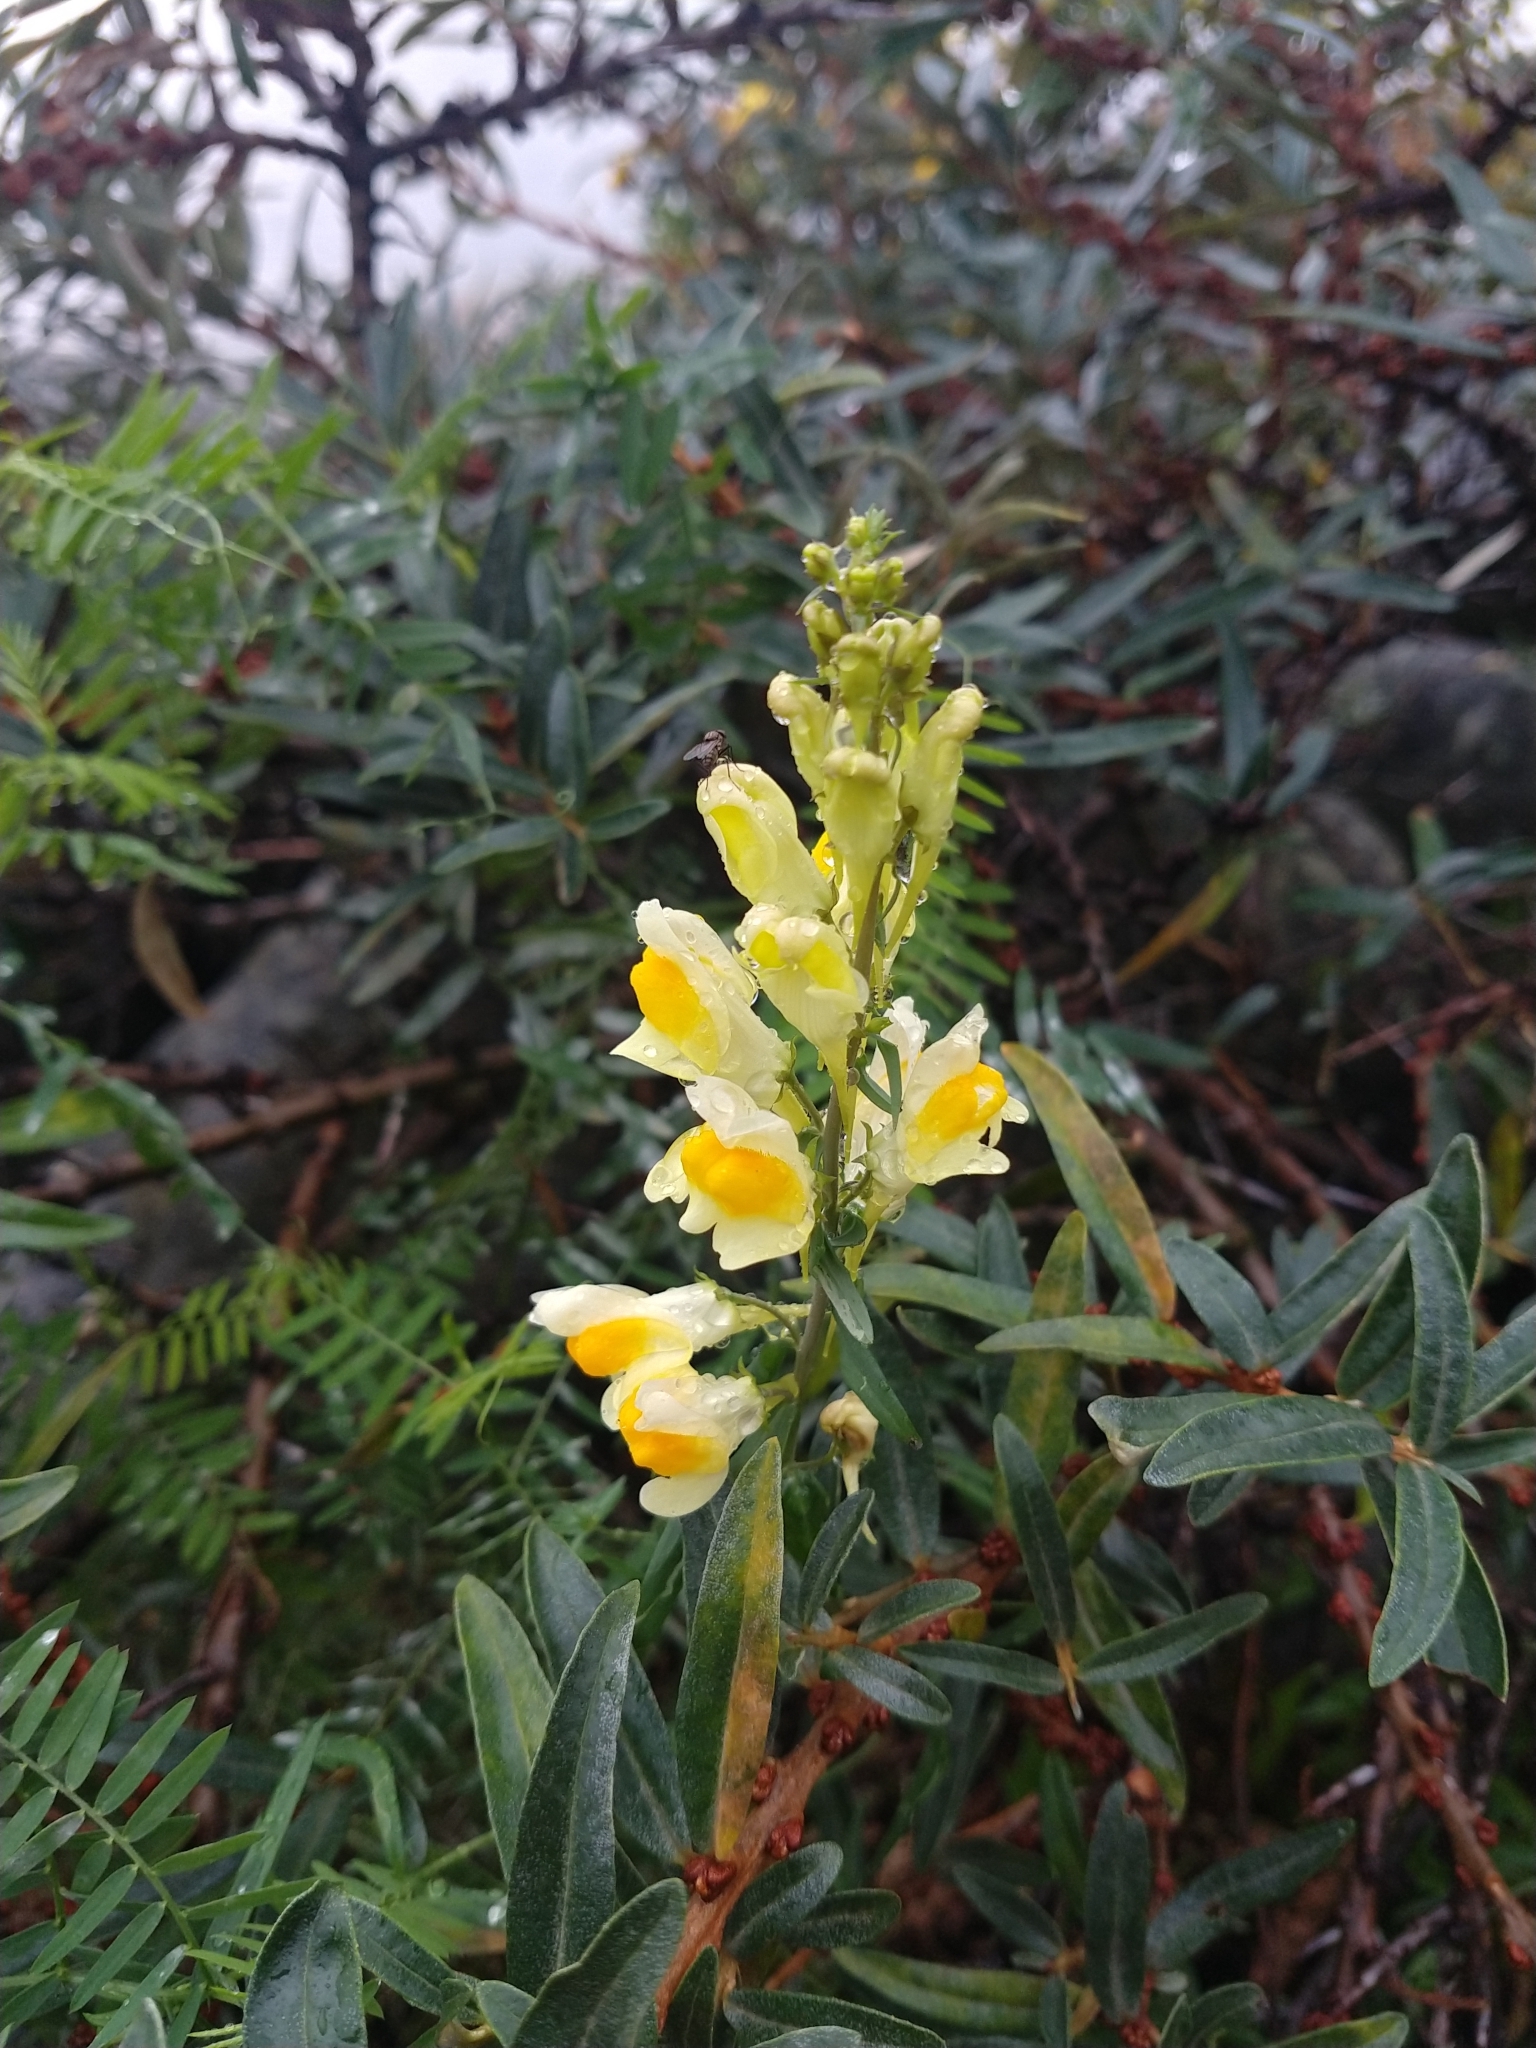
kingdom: Plantae
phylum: Tracheophyta
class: Magnoliopsida
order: Lamiales
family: Plantaginaceae
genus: Linaria
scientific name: Linaria vulgaris
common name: Butter and eggs
